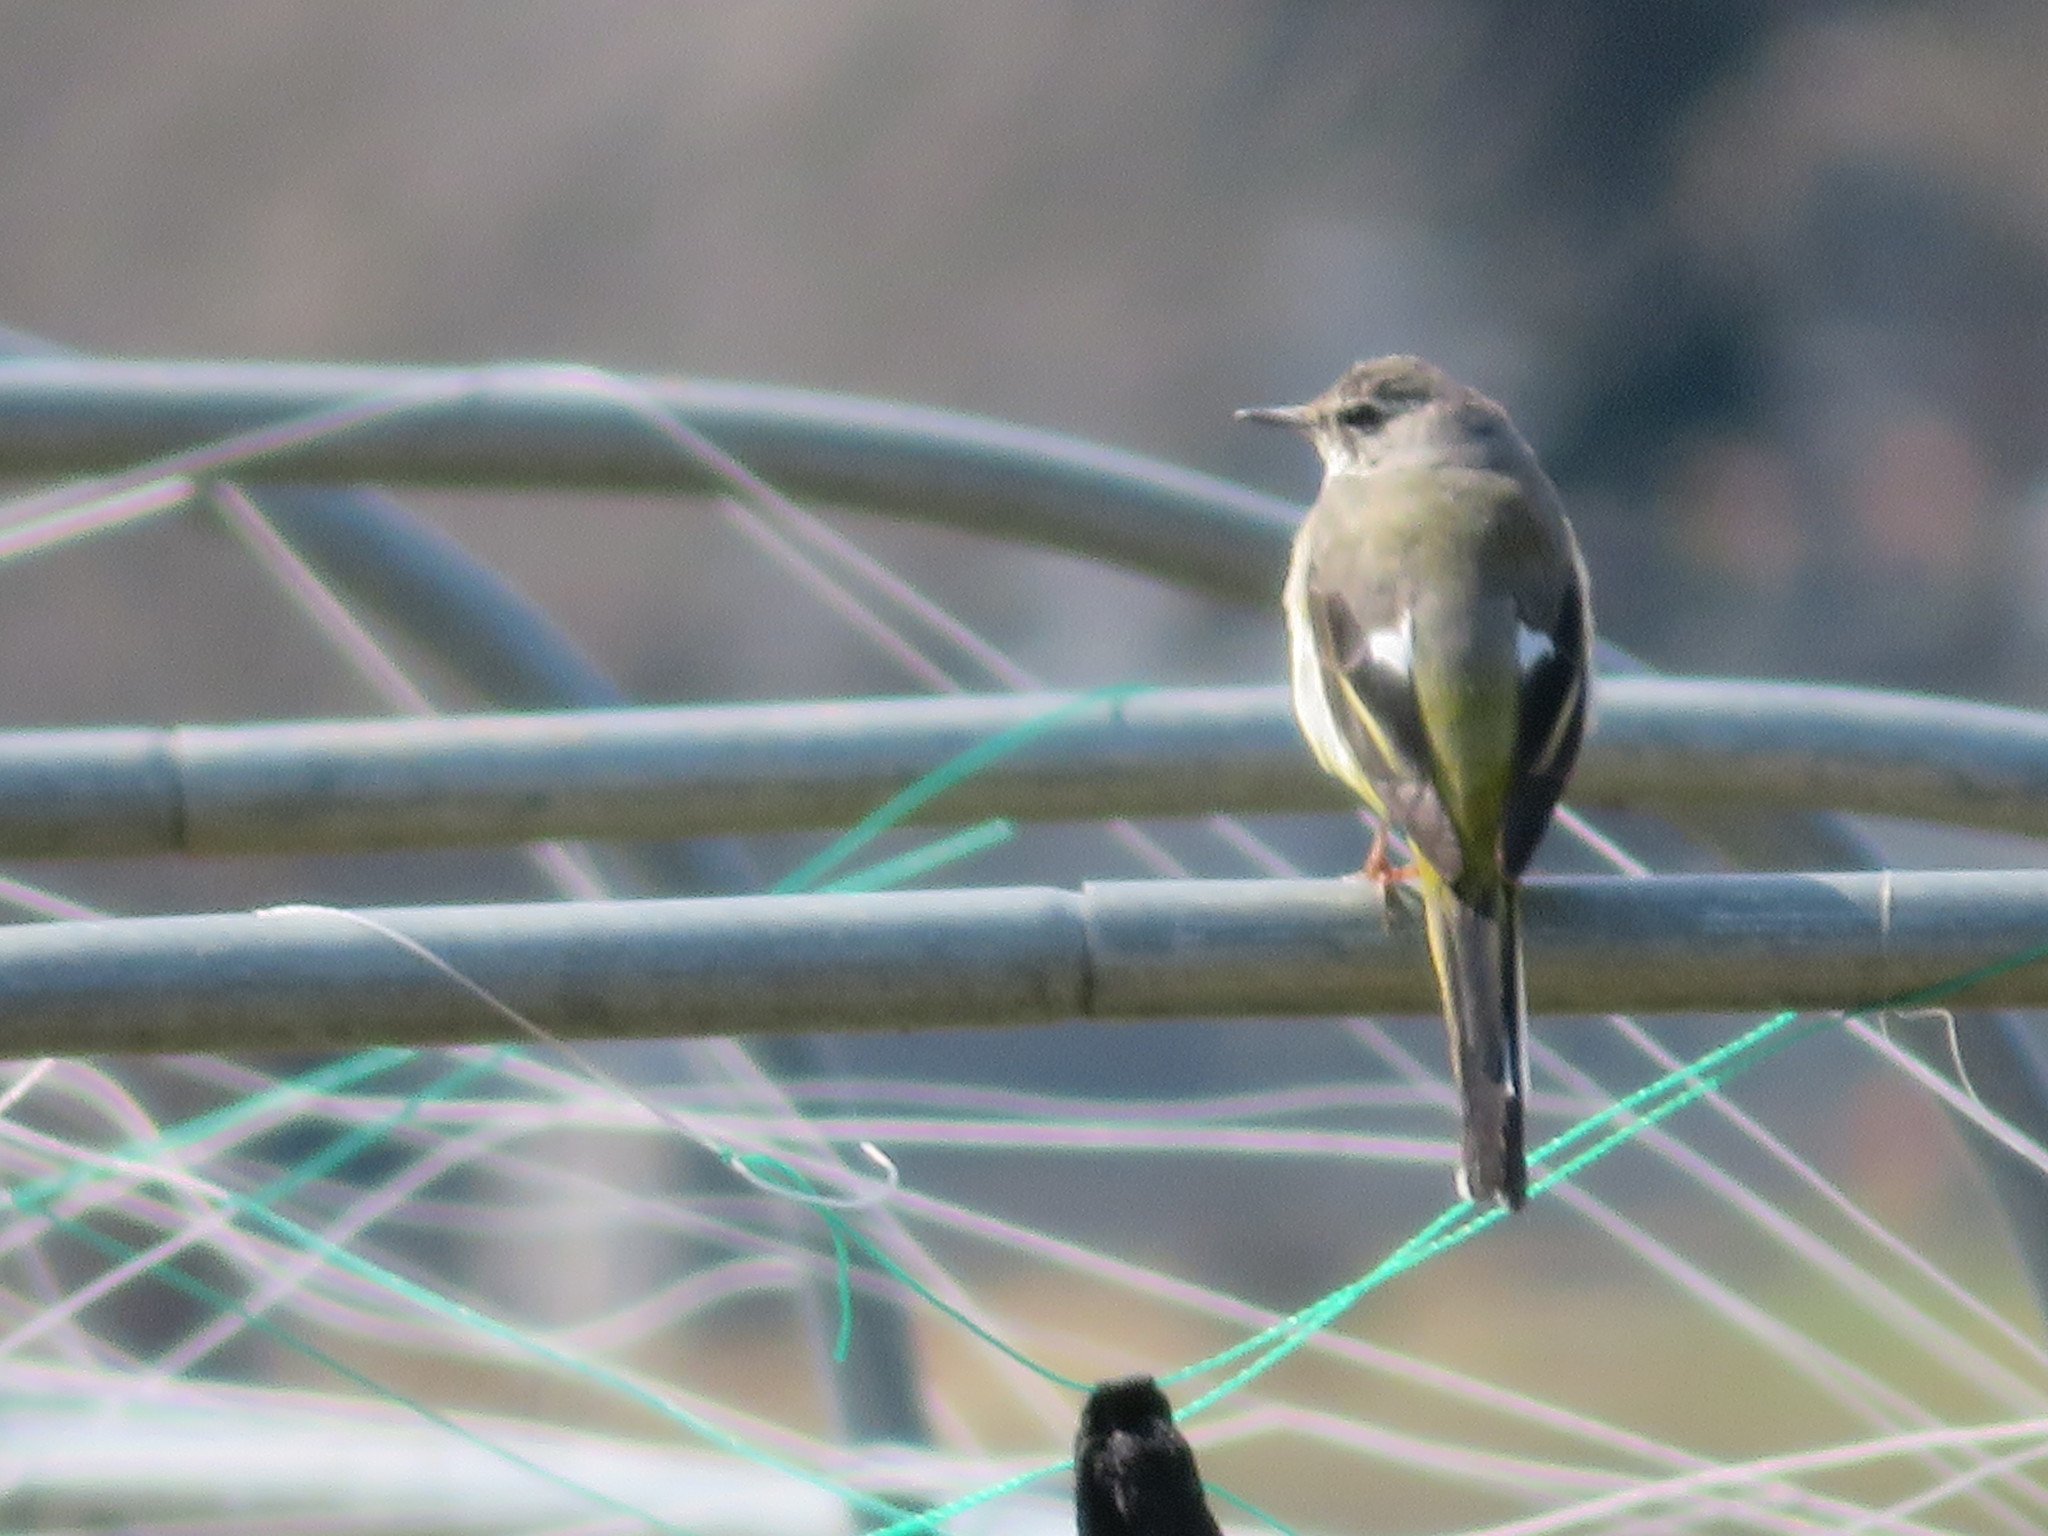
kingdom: Animalia
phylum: Chordata
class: Aves
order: Passeriformes
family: Motacillidae
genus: Motacilla
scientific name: Motacilla cinerea
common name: Grey wagtail
